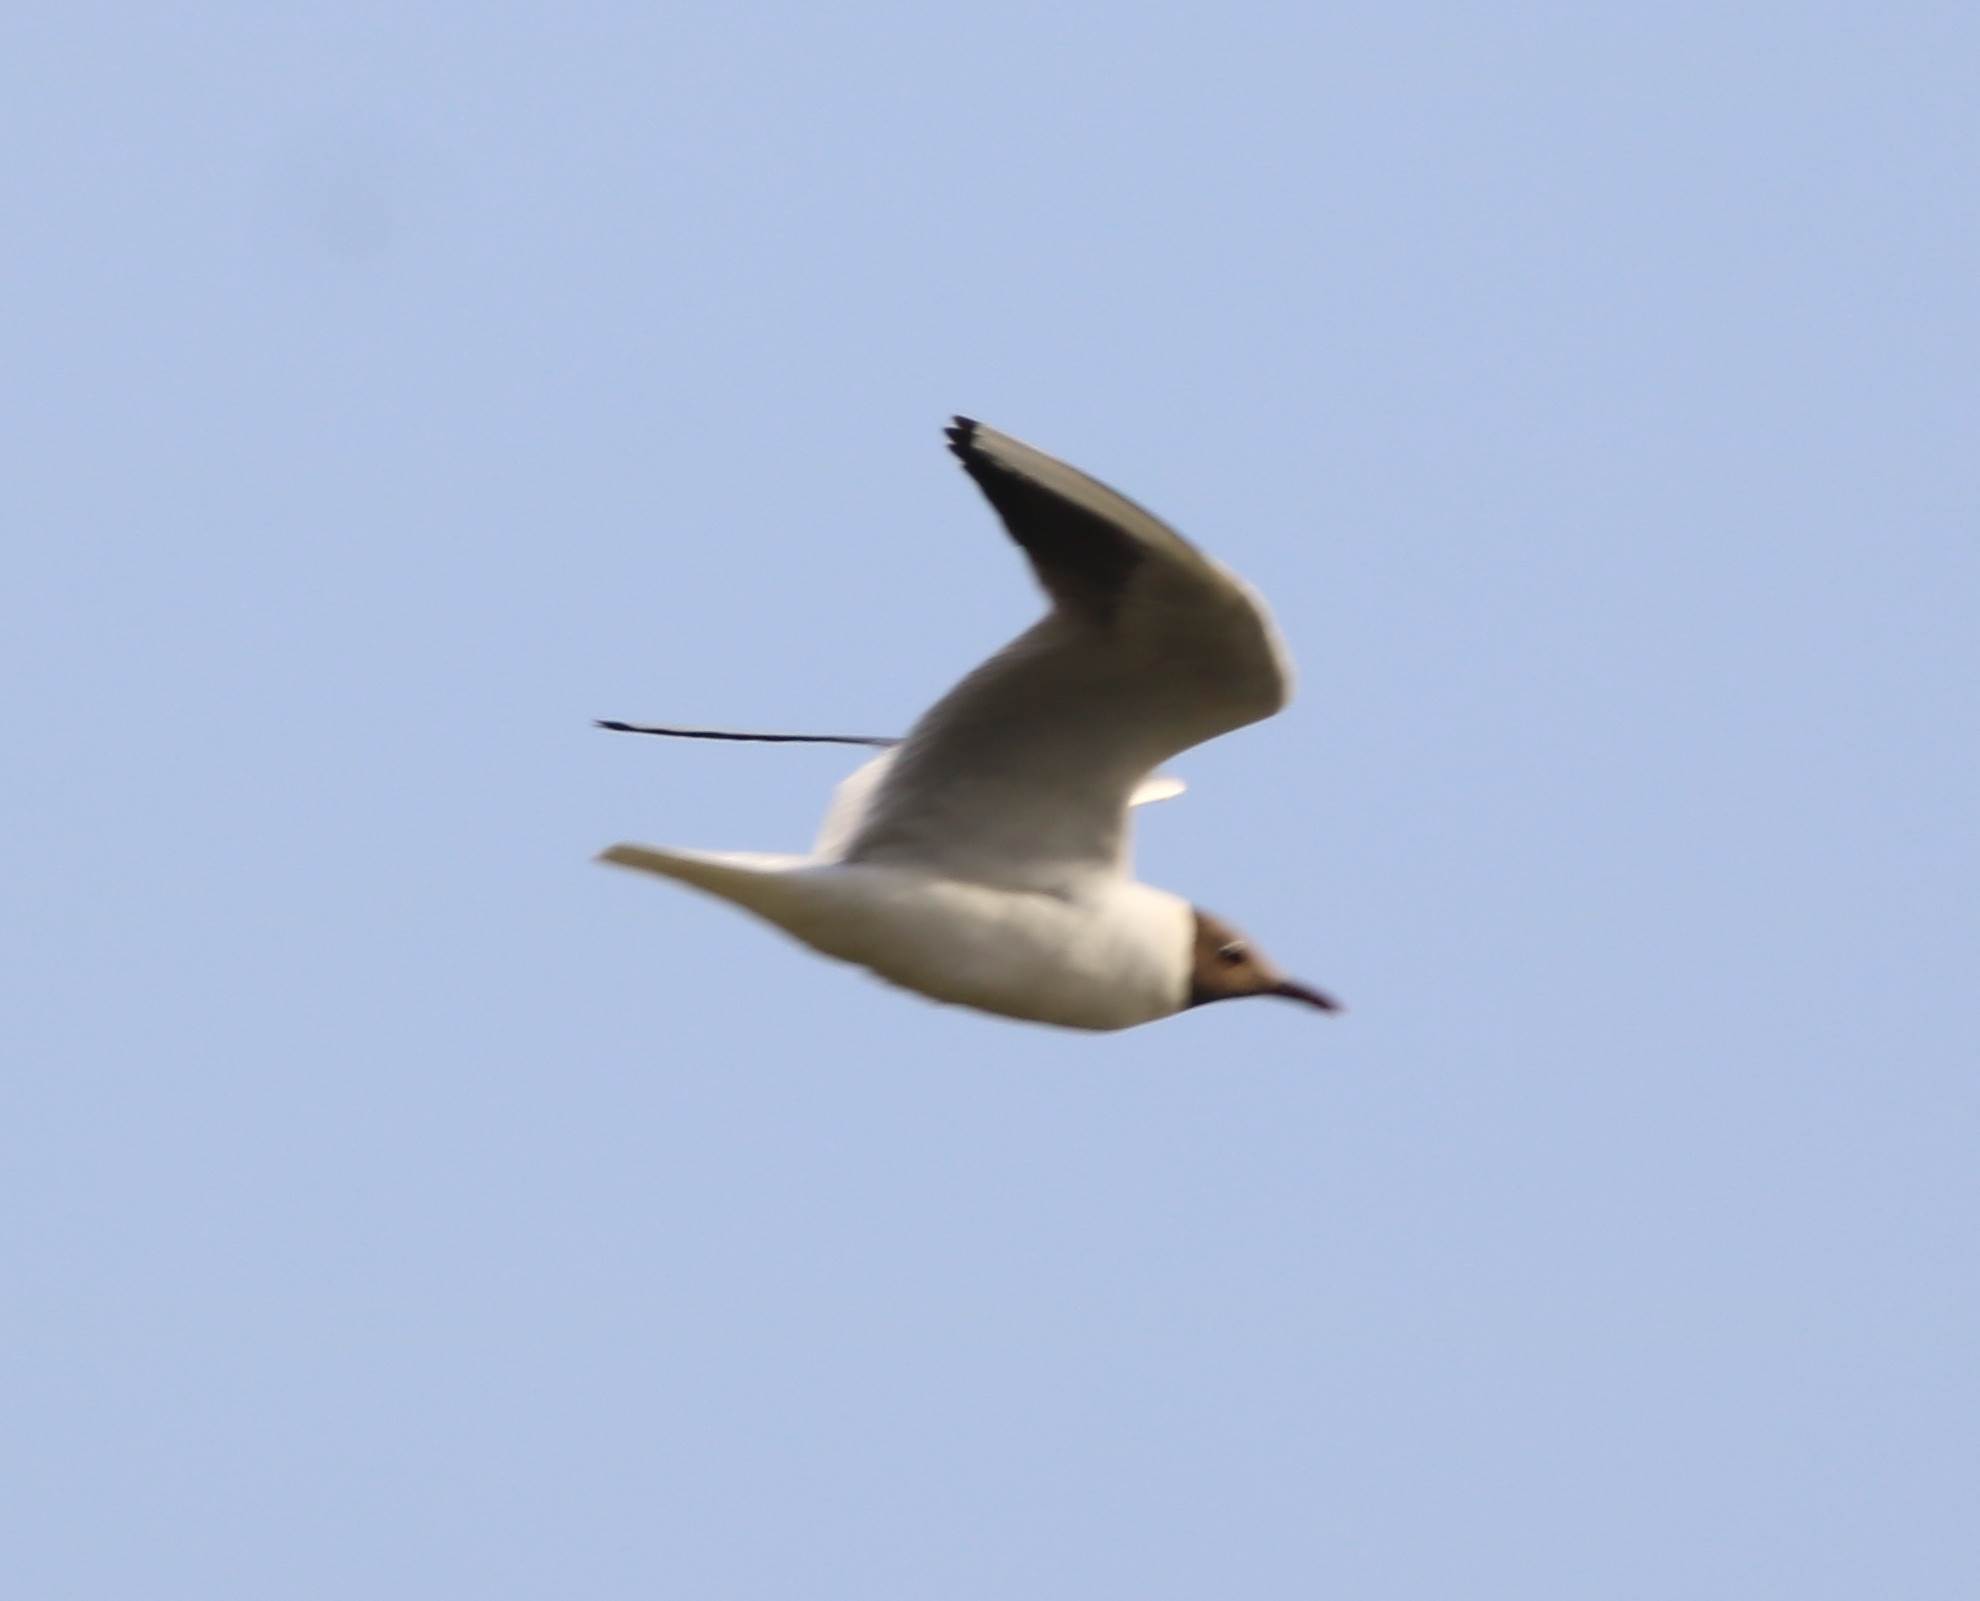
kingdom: Animalia
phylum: Chordata
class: Aves
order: Charadriiformes
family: Laridae
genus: Chroicocephalus
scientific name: Chroicocephalus ridibundus
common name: Black-headed gull
